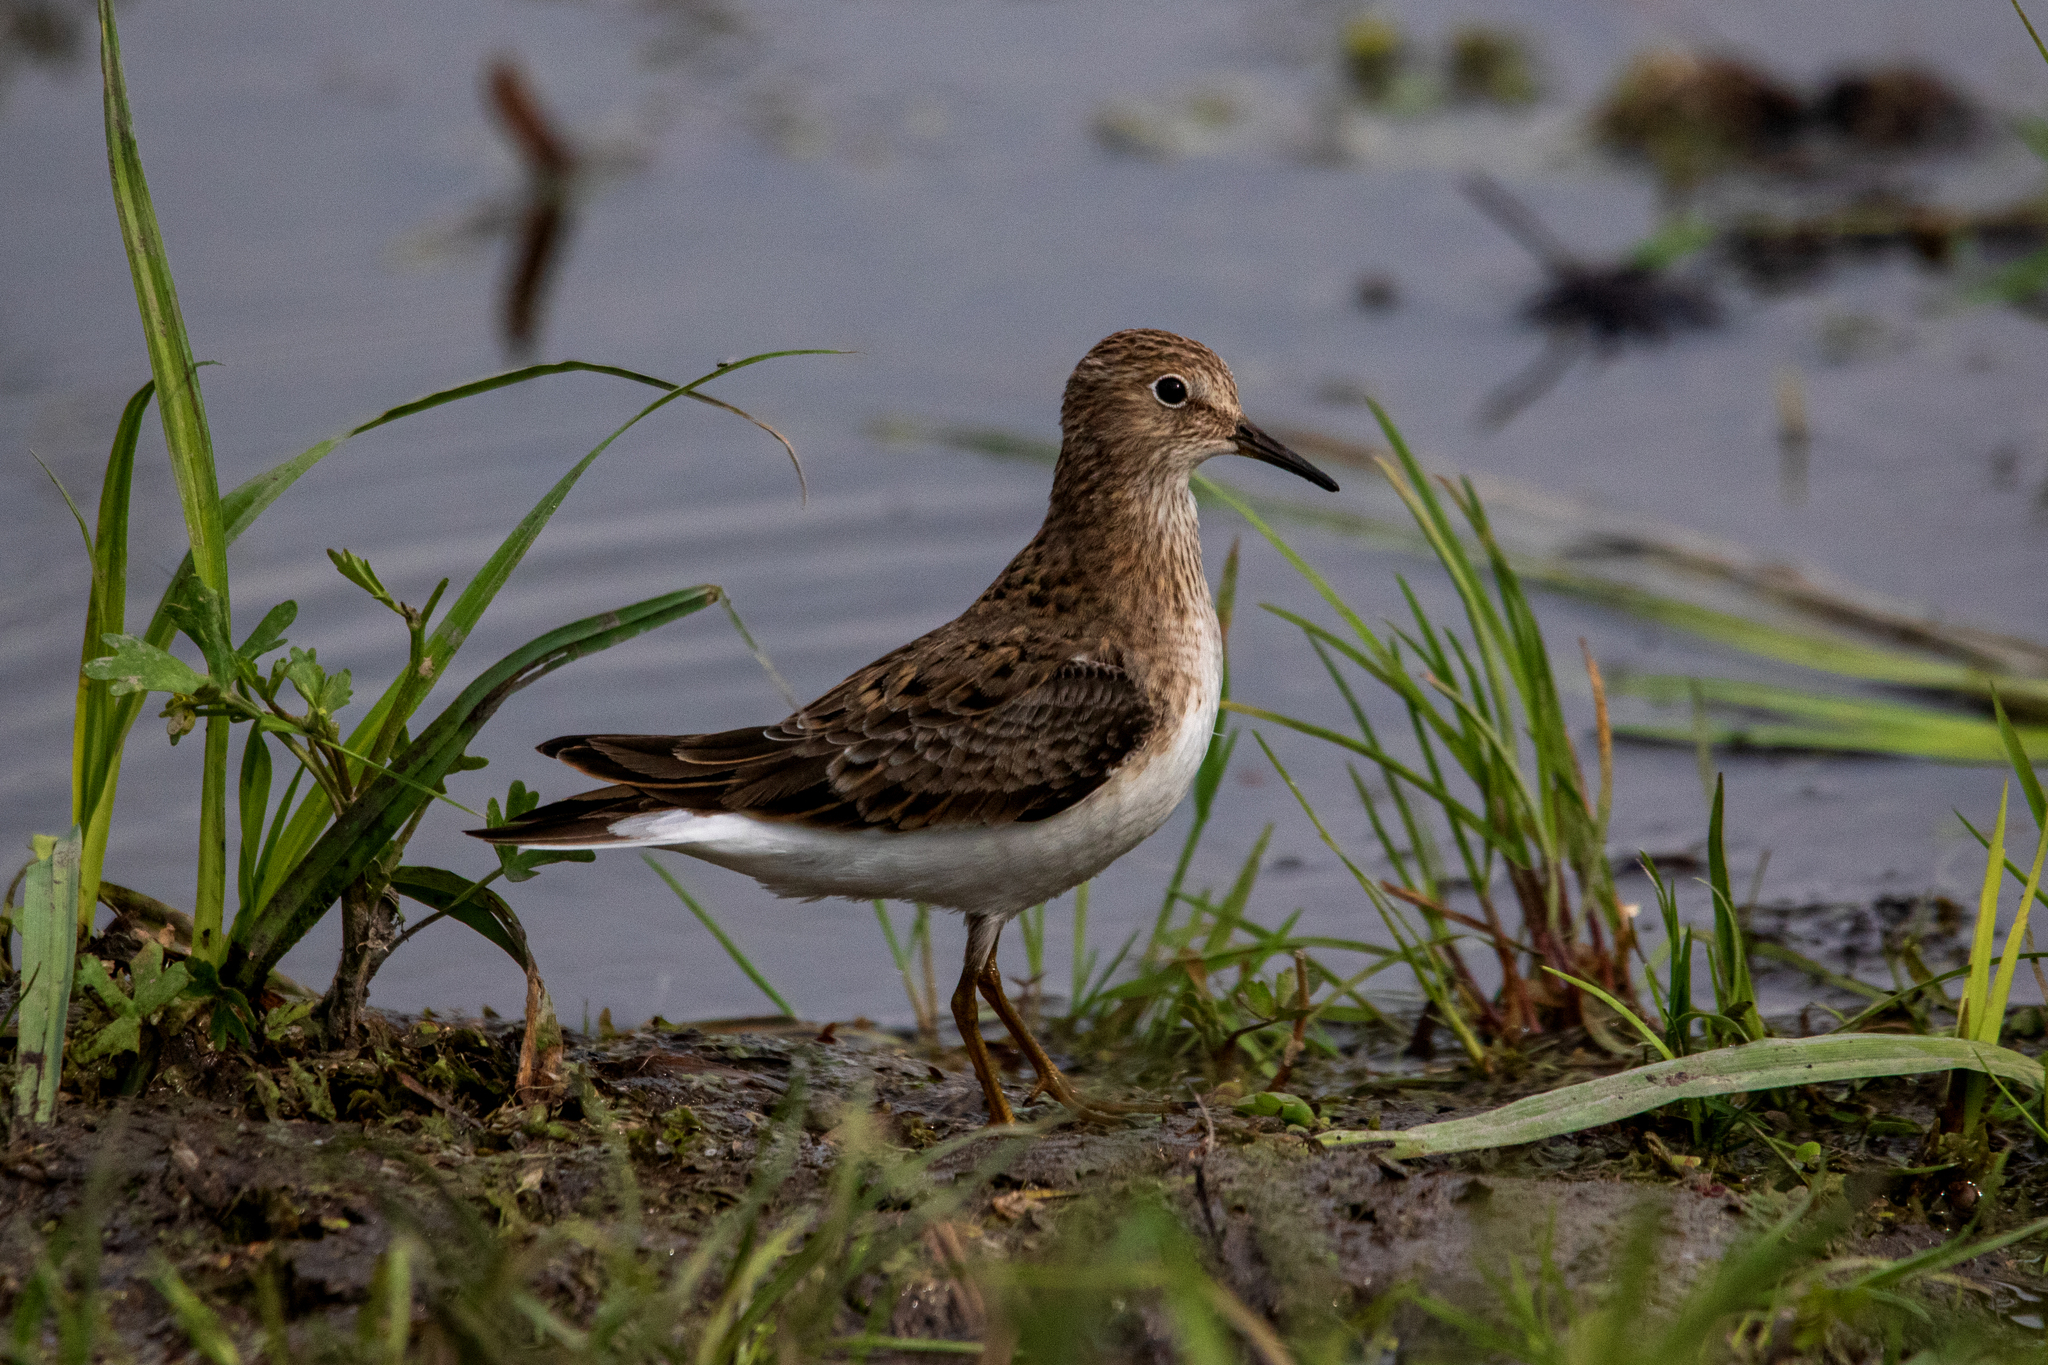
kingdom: Animalia
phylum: Chordata
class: Aves
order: Charadriiformes
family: Scolopacidae
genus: Calidris
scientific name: Calidris temminckii
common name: Temminck's stint
